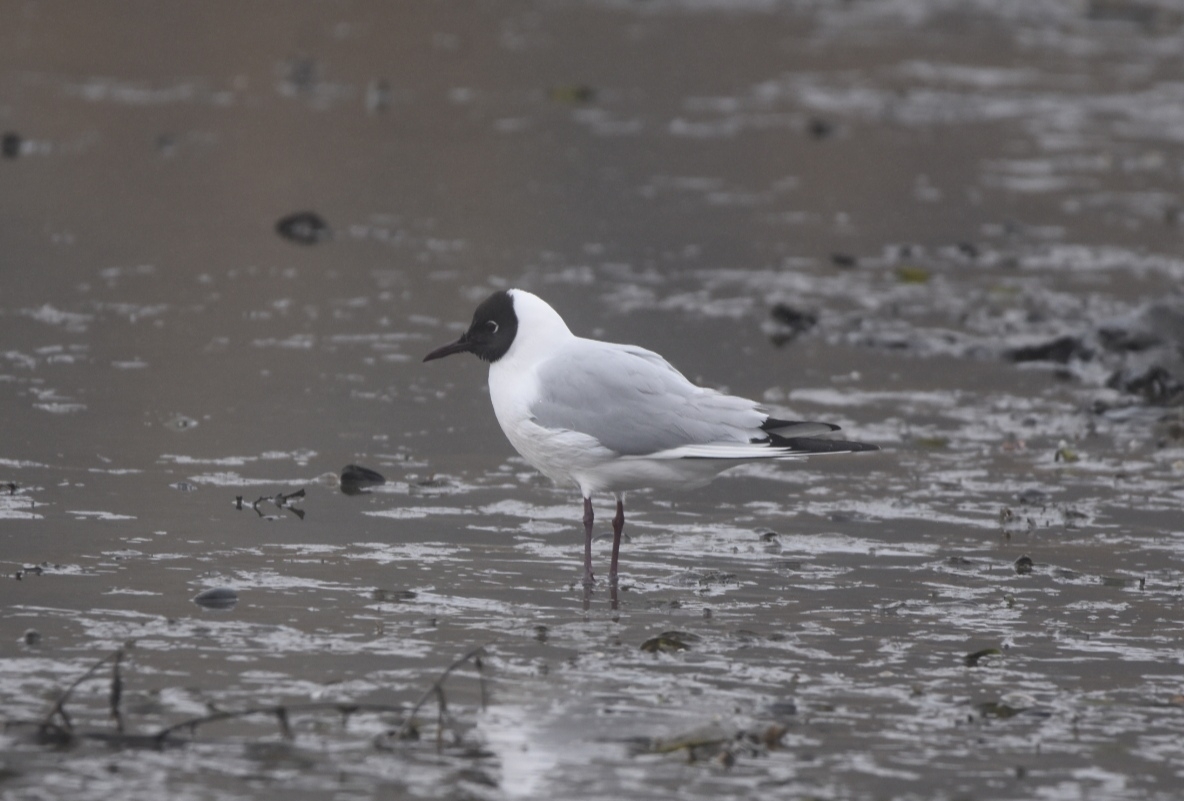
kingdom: Animalia
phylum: Chordata
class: Aves
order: Charadriiformes
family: Laridae
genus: Chroicocephalus
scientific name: Chroicocephalus ridibundus
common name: Black-headed gull
